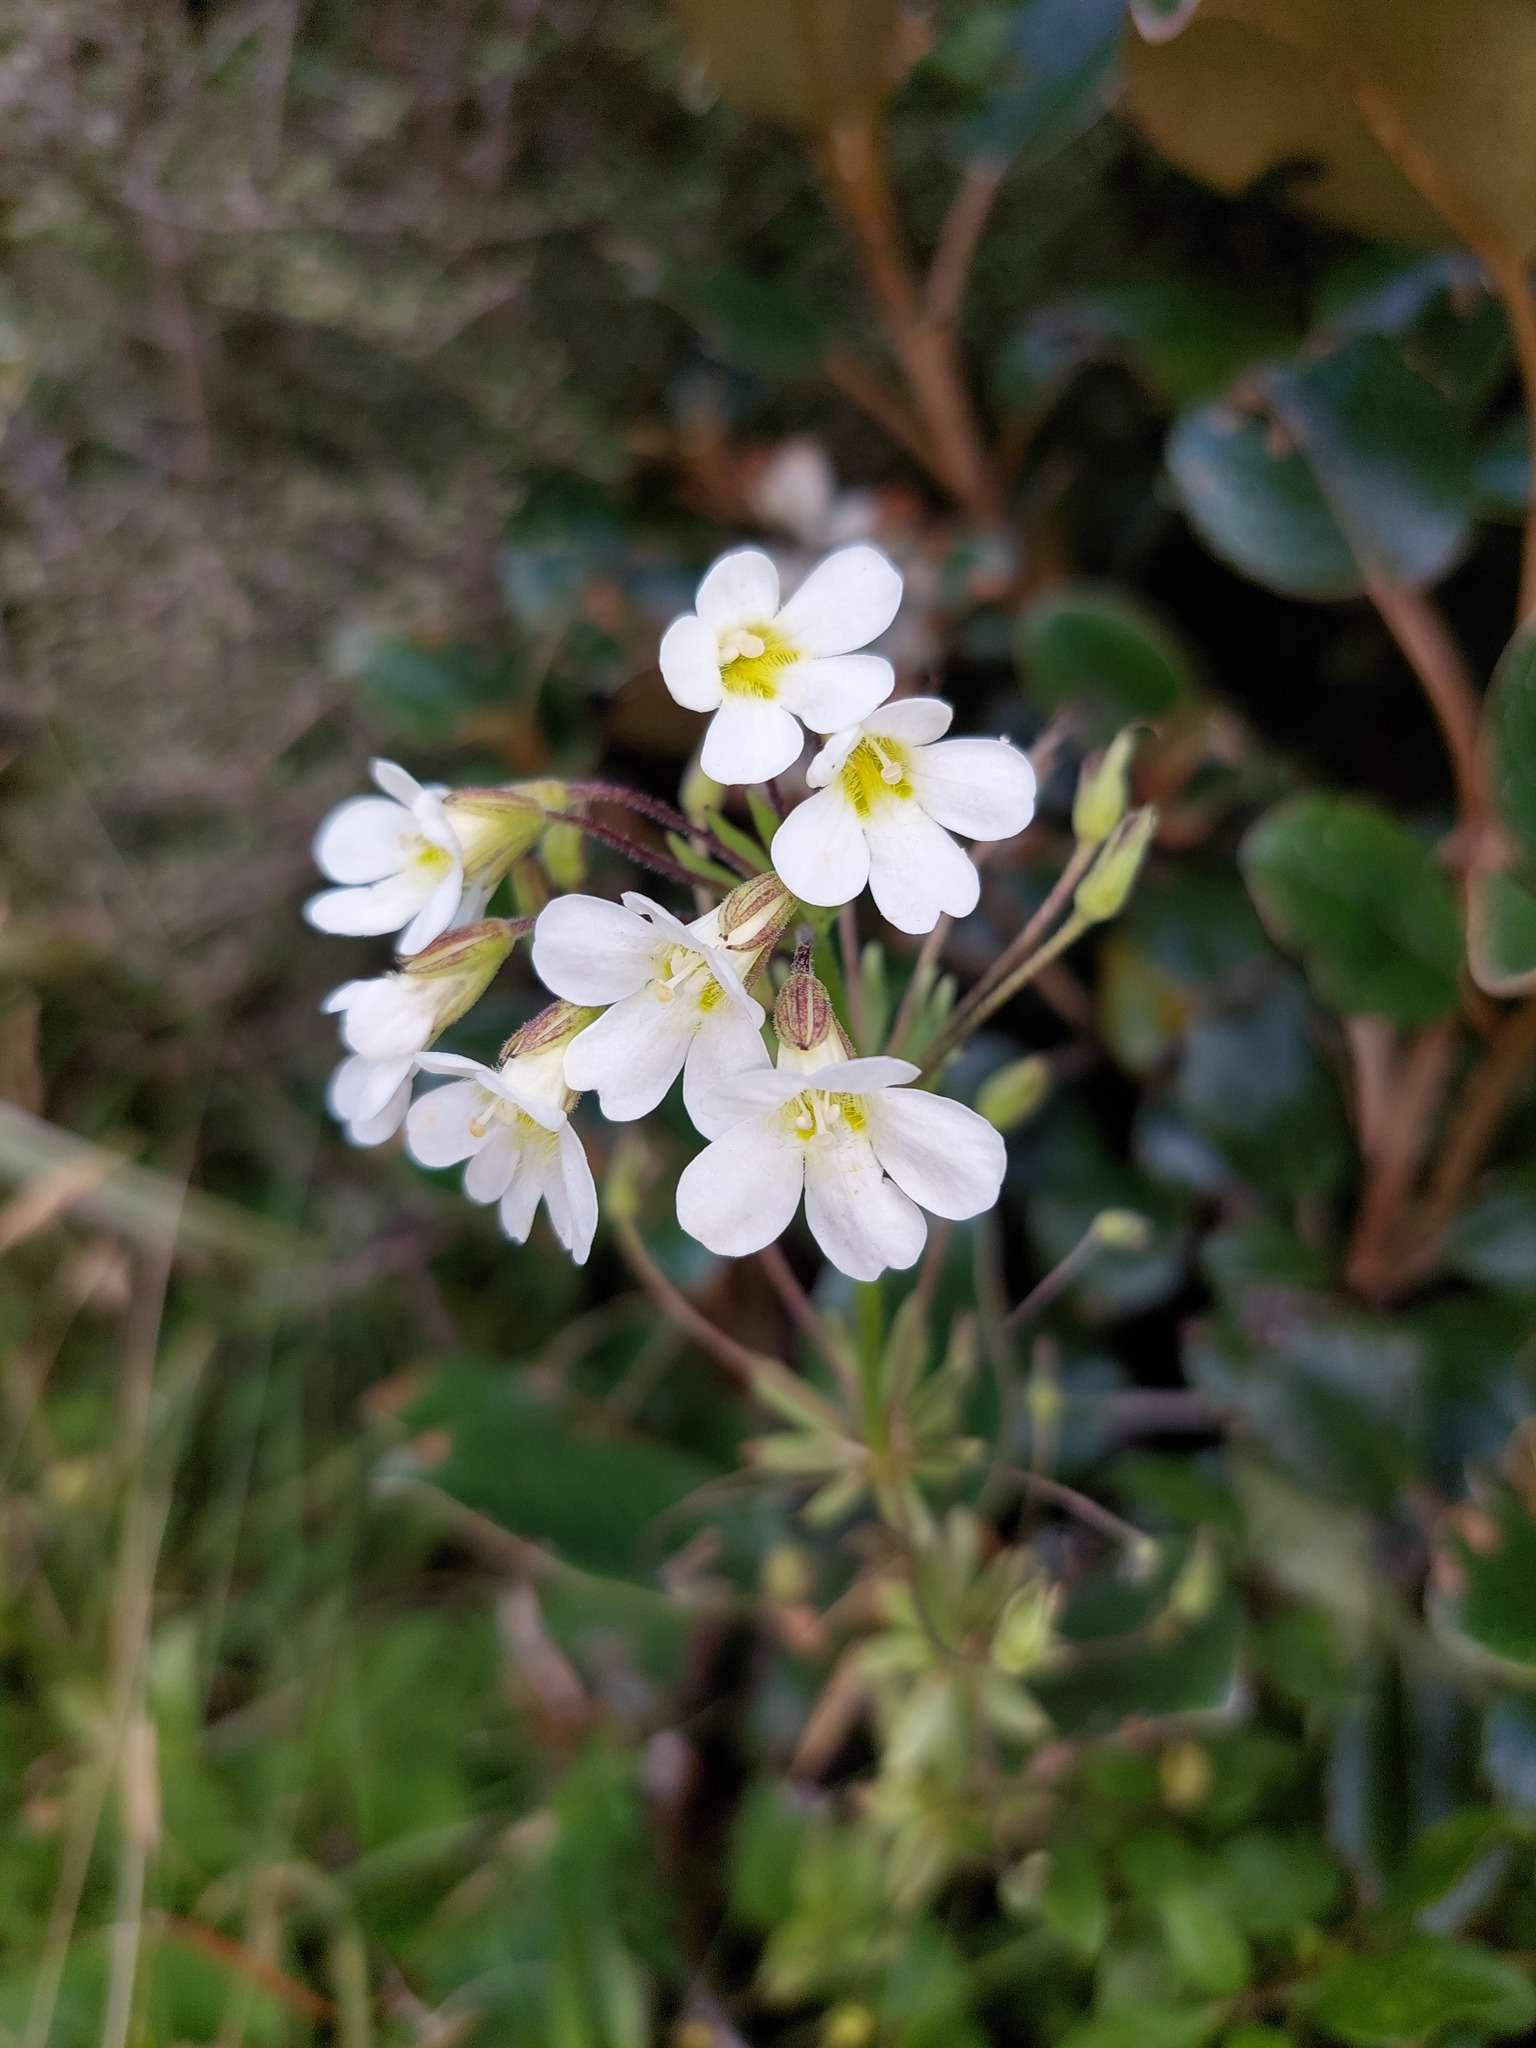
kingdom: Plantae
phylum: Tracheophyta
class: Magnoliopsida
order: Lamiales
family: Plantaginaceae
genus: Ourisia
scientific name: Ourisia macrophylla
